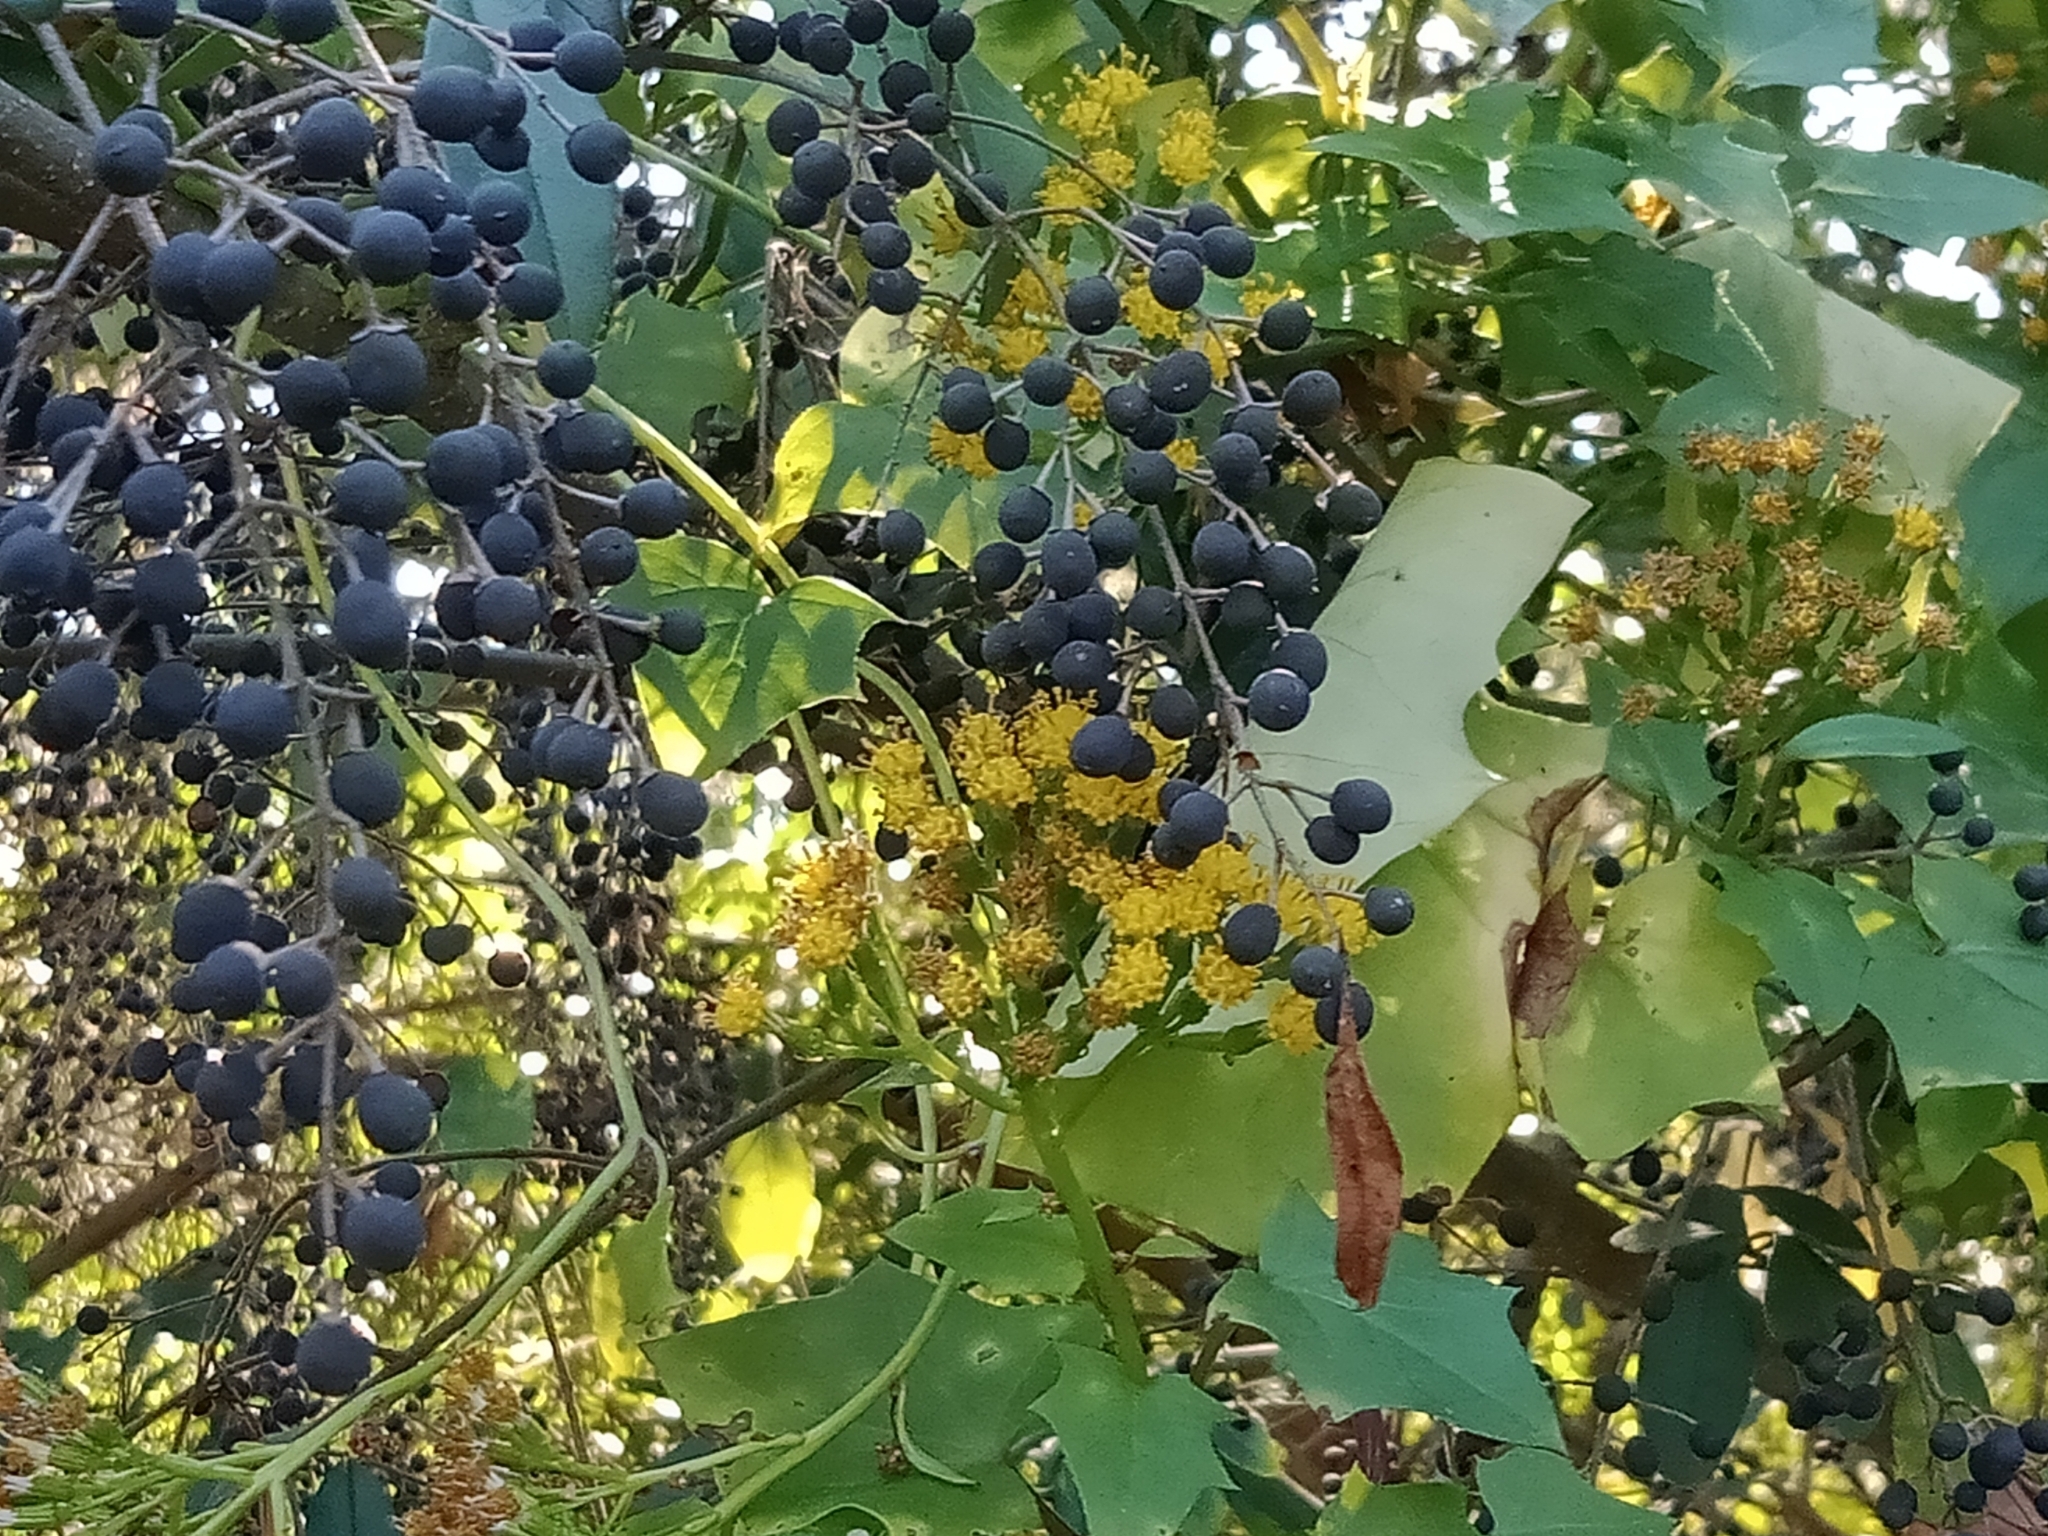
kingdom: Plantae
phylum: Tracheophyta
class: Magnoliopsida
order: Asterales
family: Asteraceae
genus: Delairea
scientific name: Delairea odorata
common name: Cape-ivy
